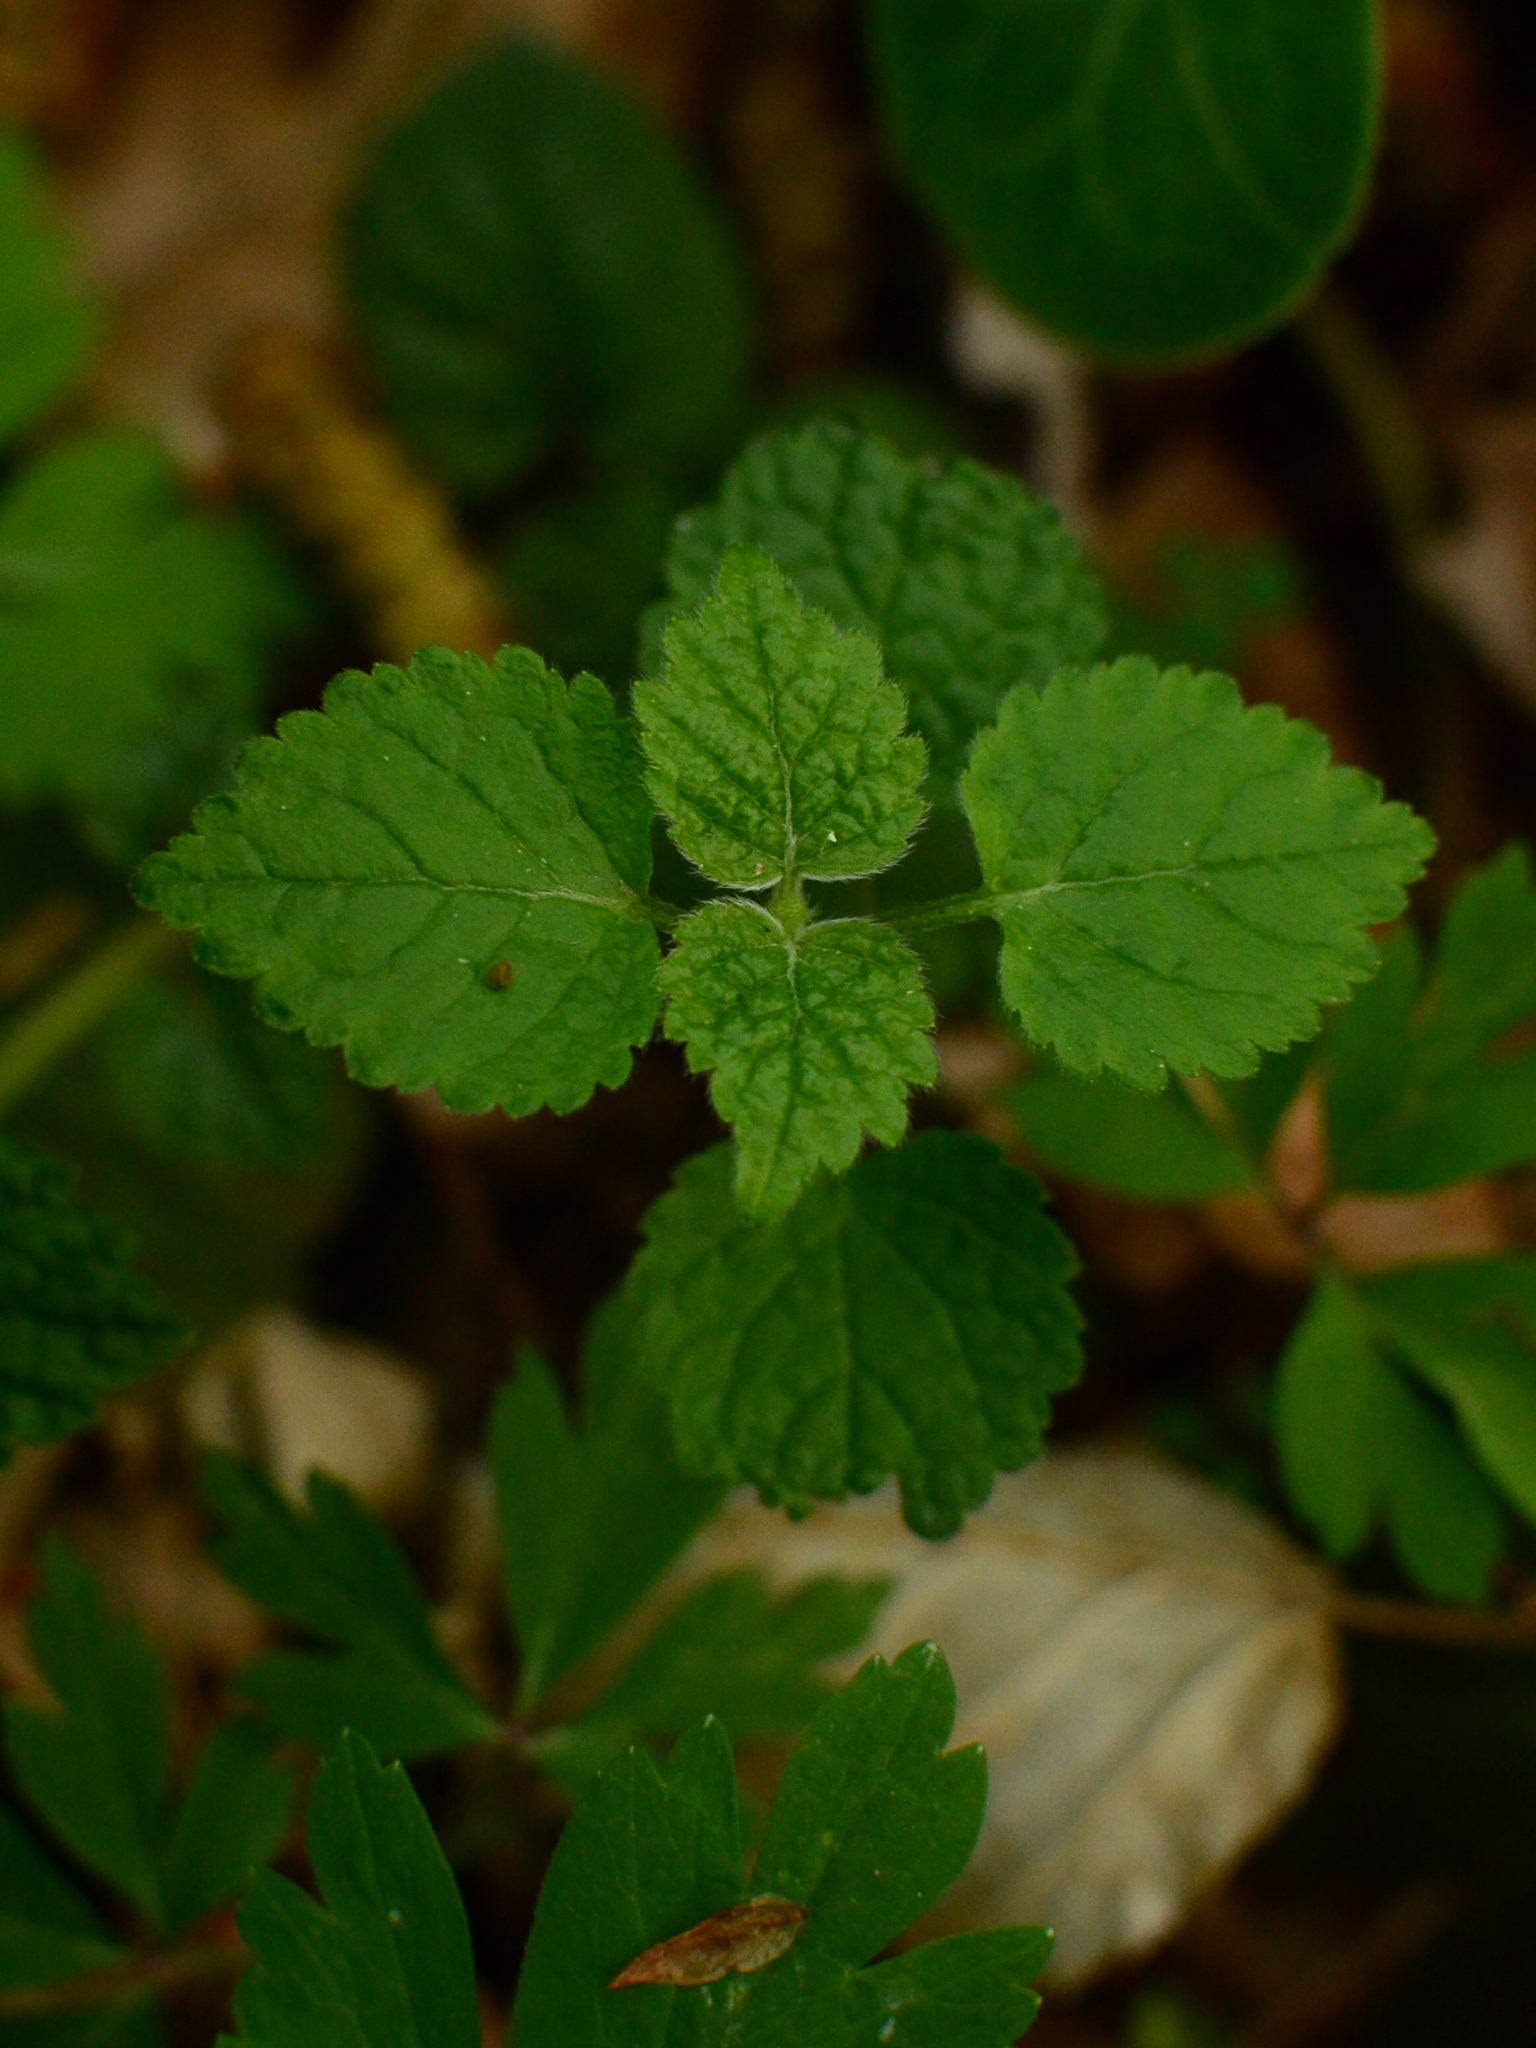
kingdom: Plantae
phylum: Tracheophyta
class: Magnoliopsida
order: Lamiales
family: Lamiaceae
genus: Melissa
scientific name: Melissa officinalis
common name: Balm
